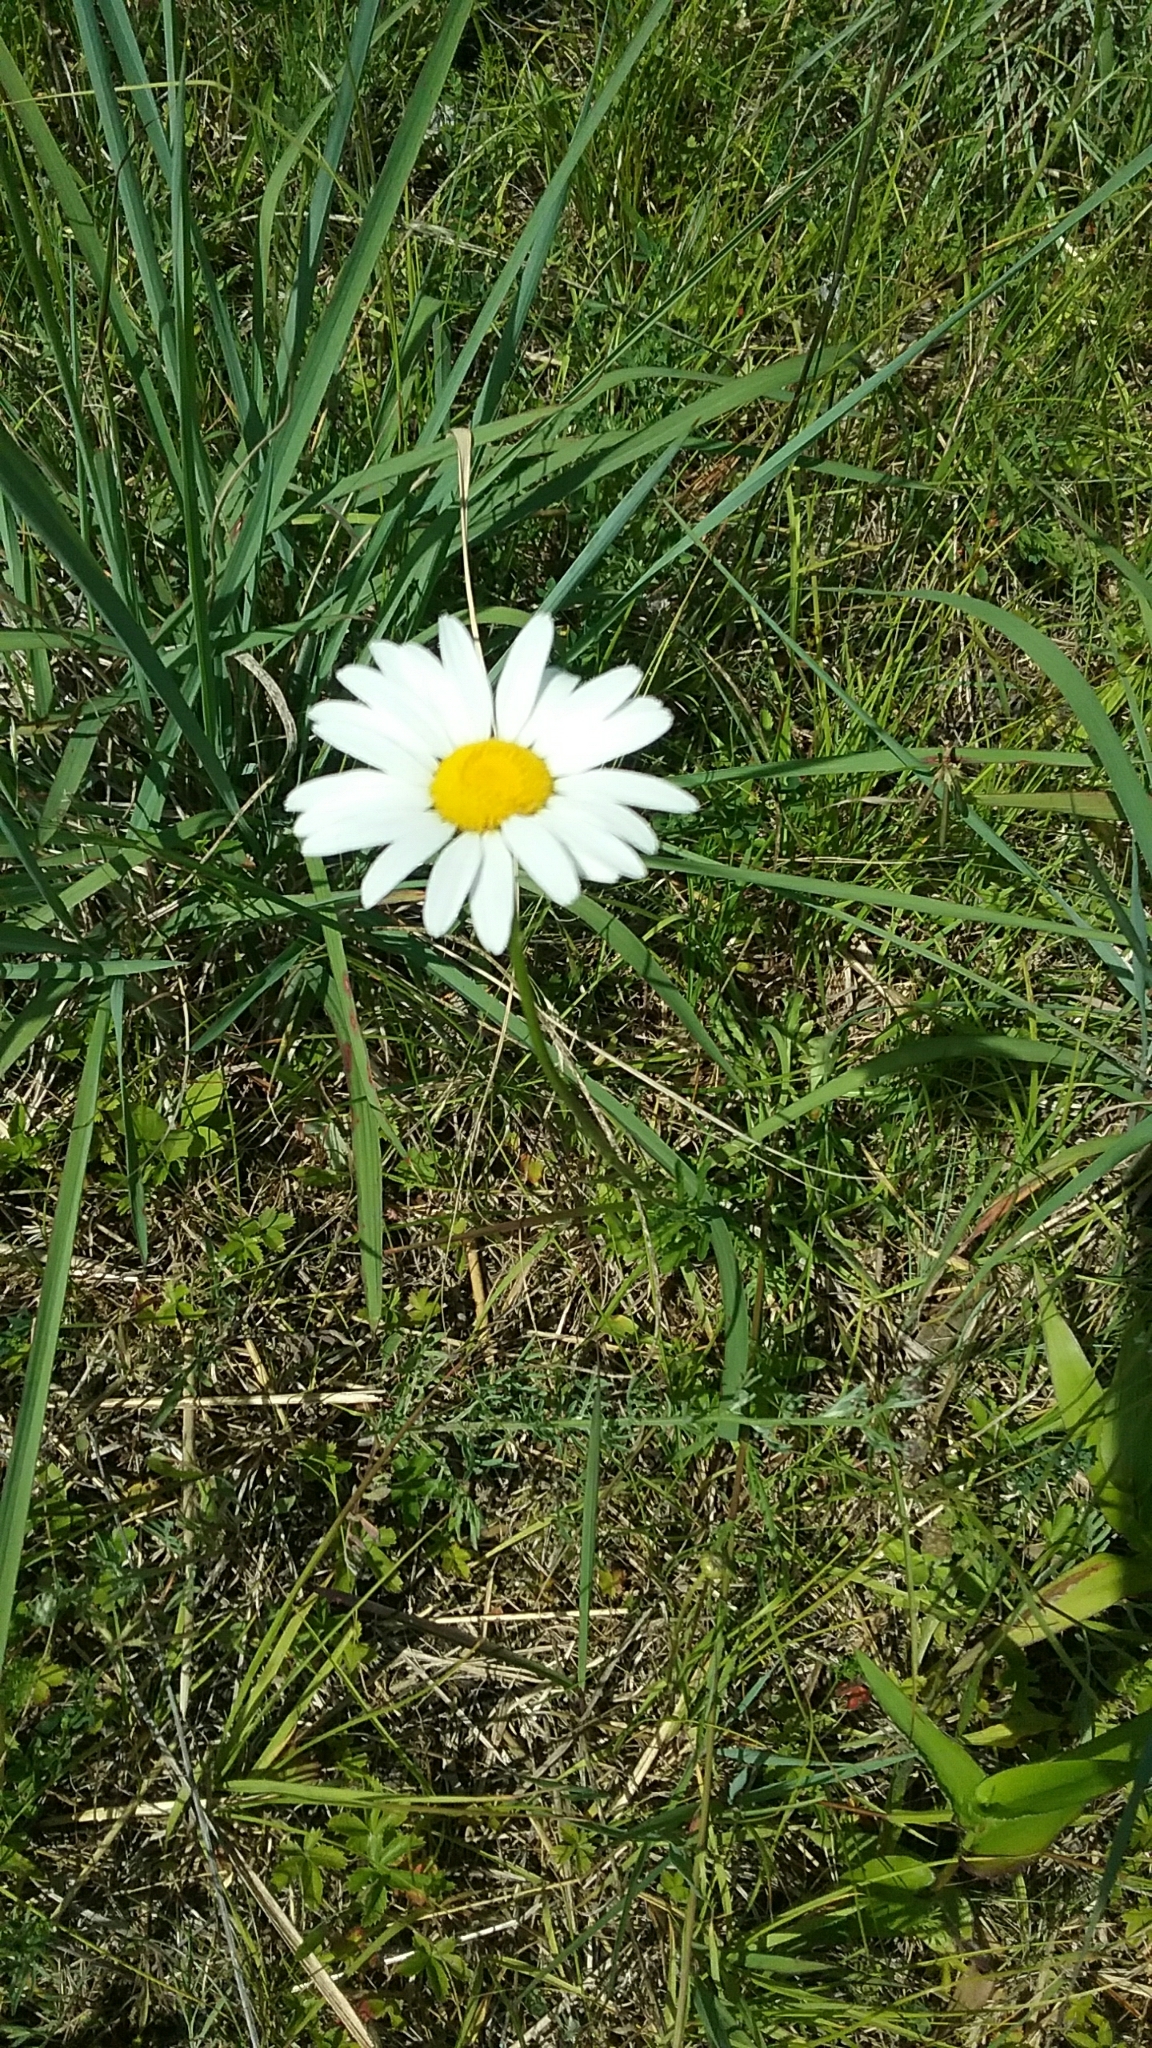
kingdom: Plantae
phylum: Tracheophyta
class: Magnoliopsida
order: Asterales
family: Asteraceae
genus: Leucanthemum
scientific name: Leucanthemum vulgare
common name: Oxeye daisy
